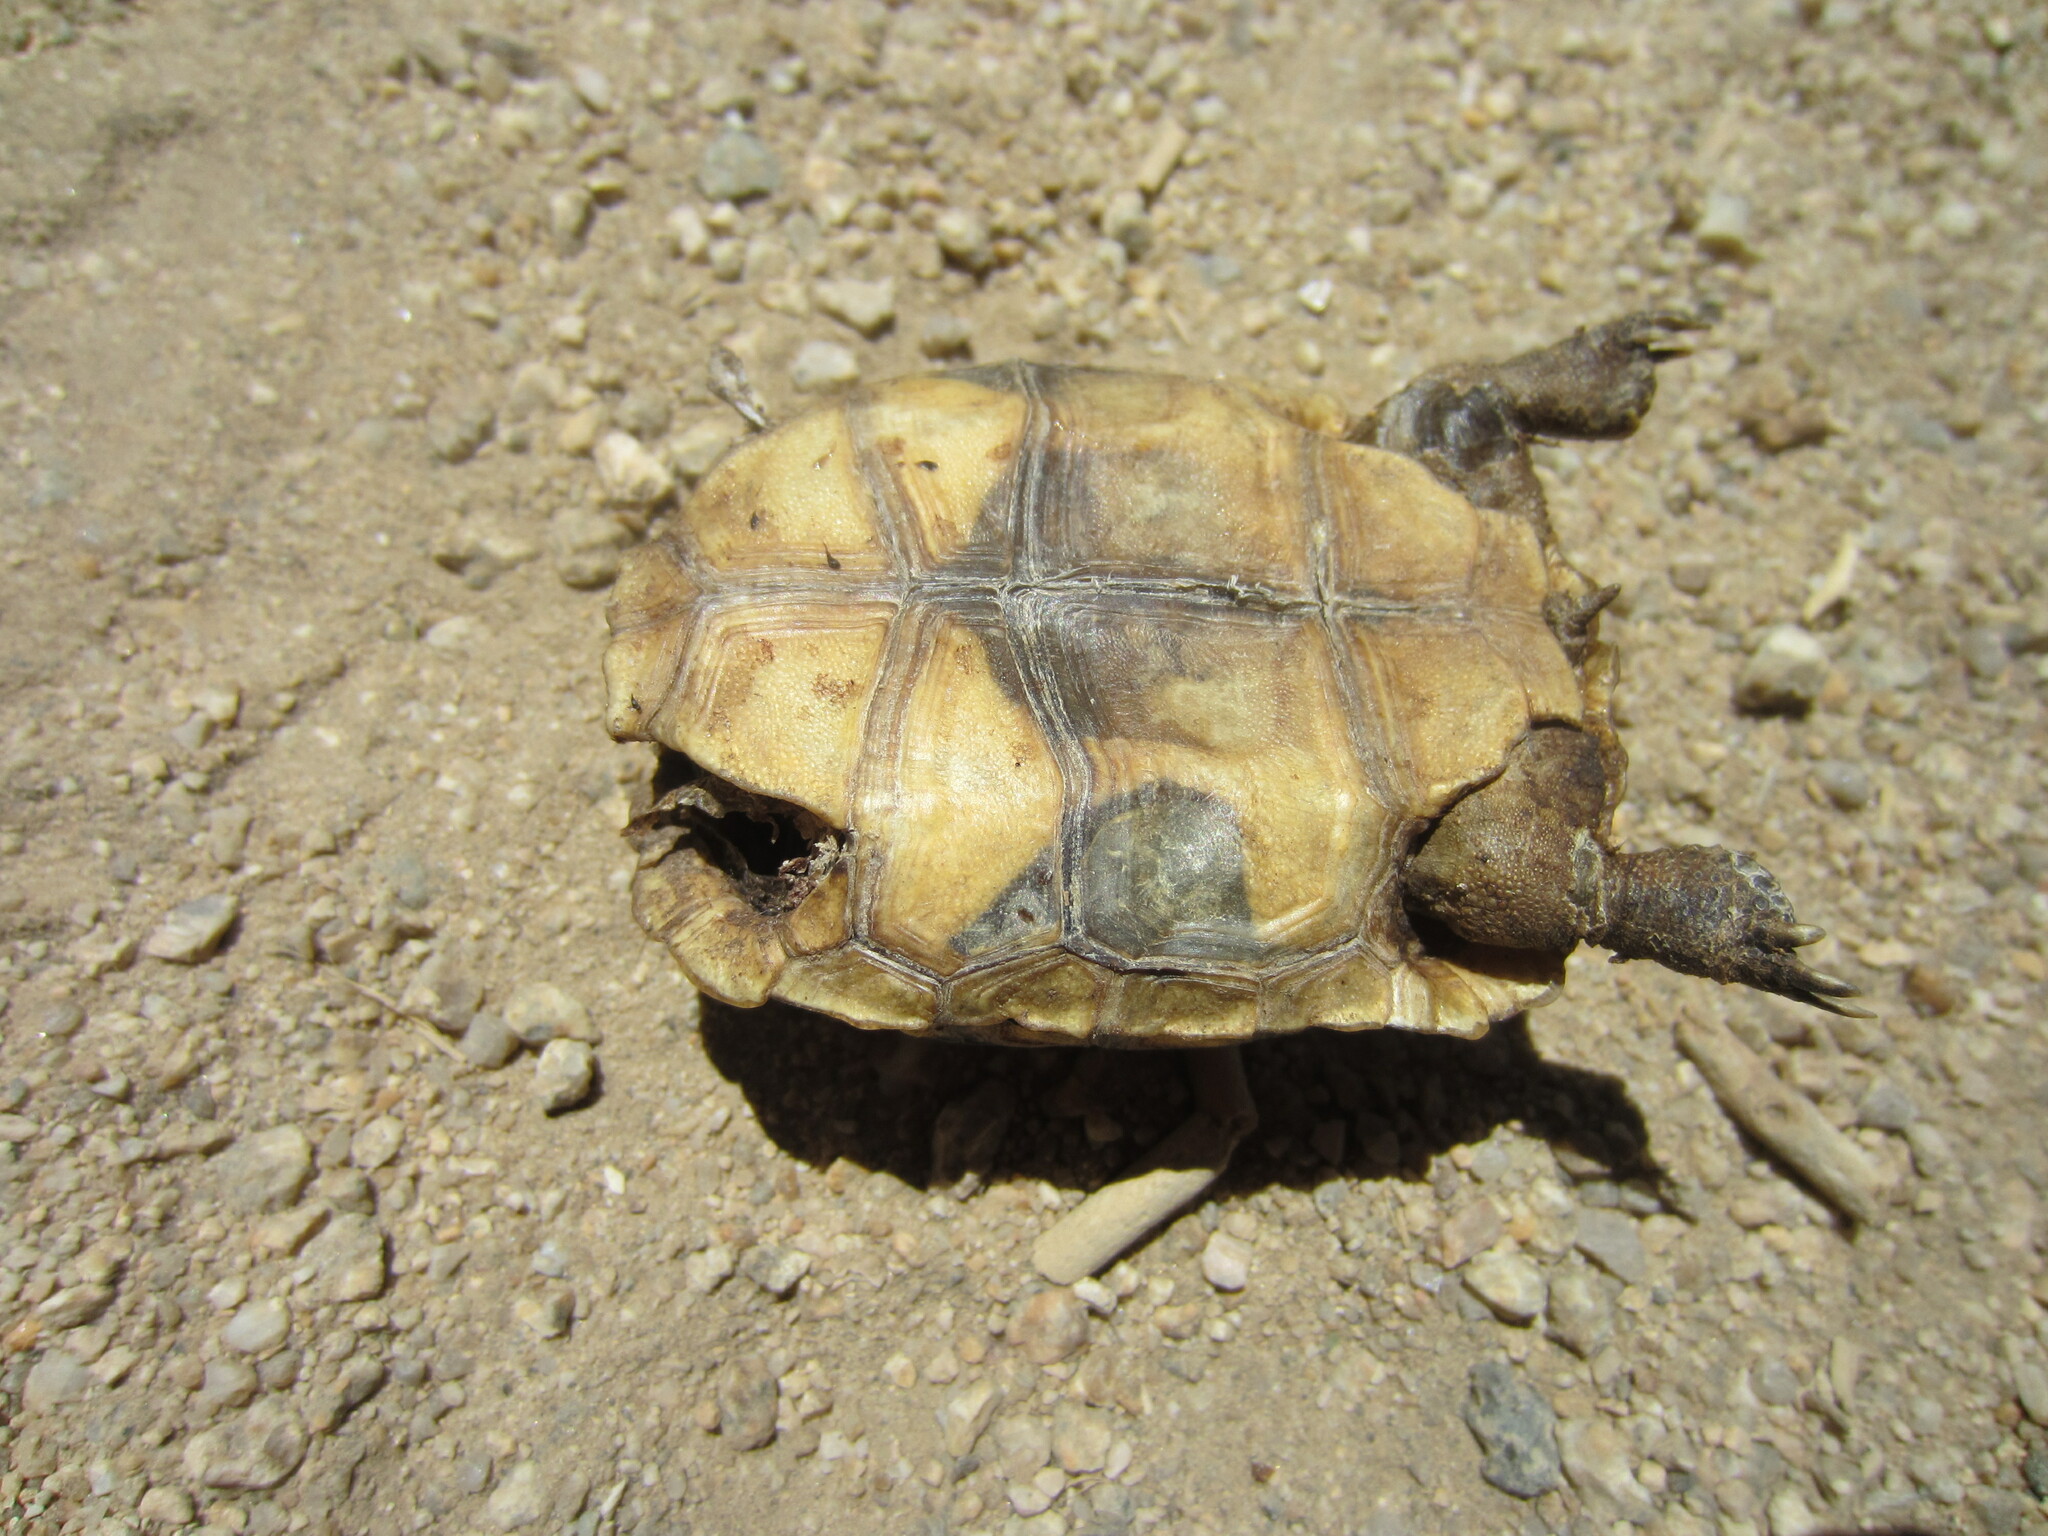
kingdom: Animalia
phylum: Chordata
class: Testudines
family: Testudinidae
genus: Gopherus
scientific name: Gopherus agassizii
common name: Mojave desert tortoise
